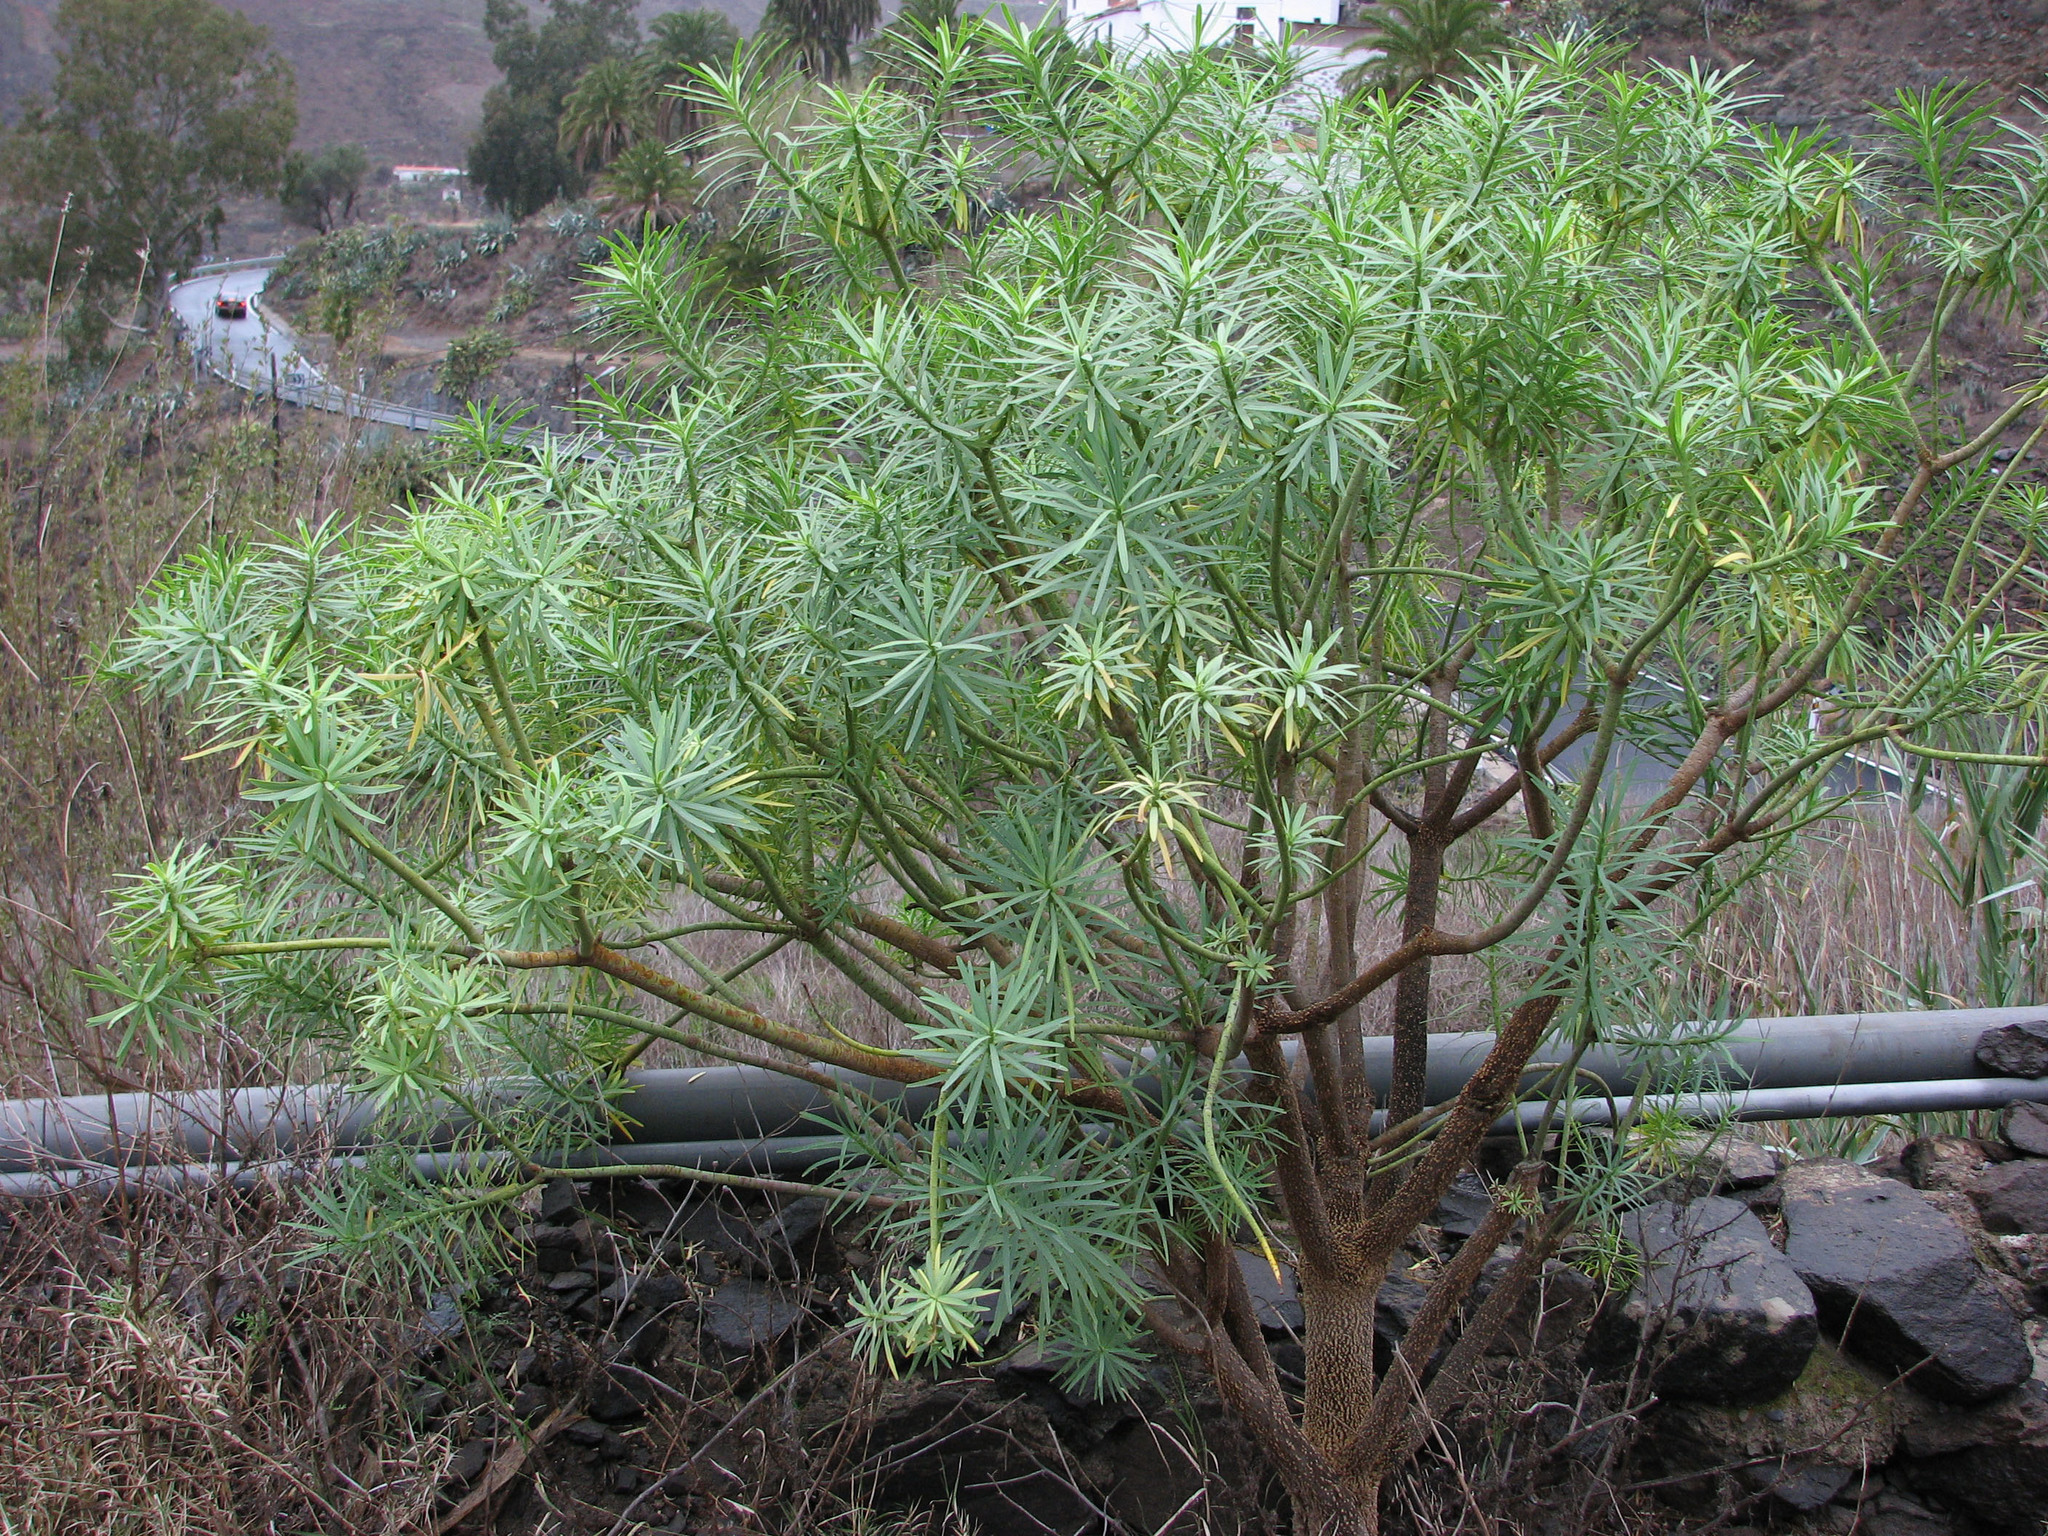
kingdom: Plantae
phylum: Tracheophyta
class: Magnoliopsida
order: Malpighiales
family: Euphorbiaceae
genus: Euphorbia
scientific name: Euphorbia regis-jubae
